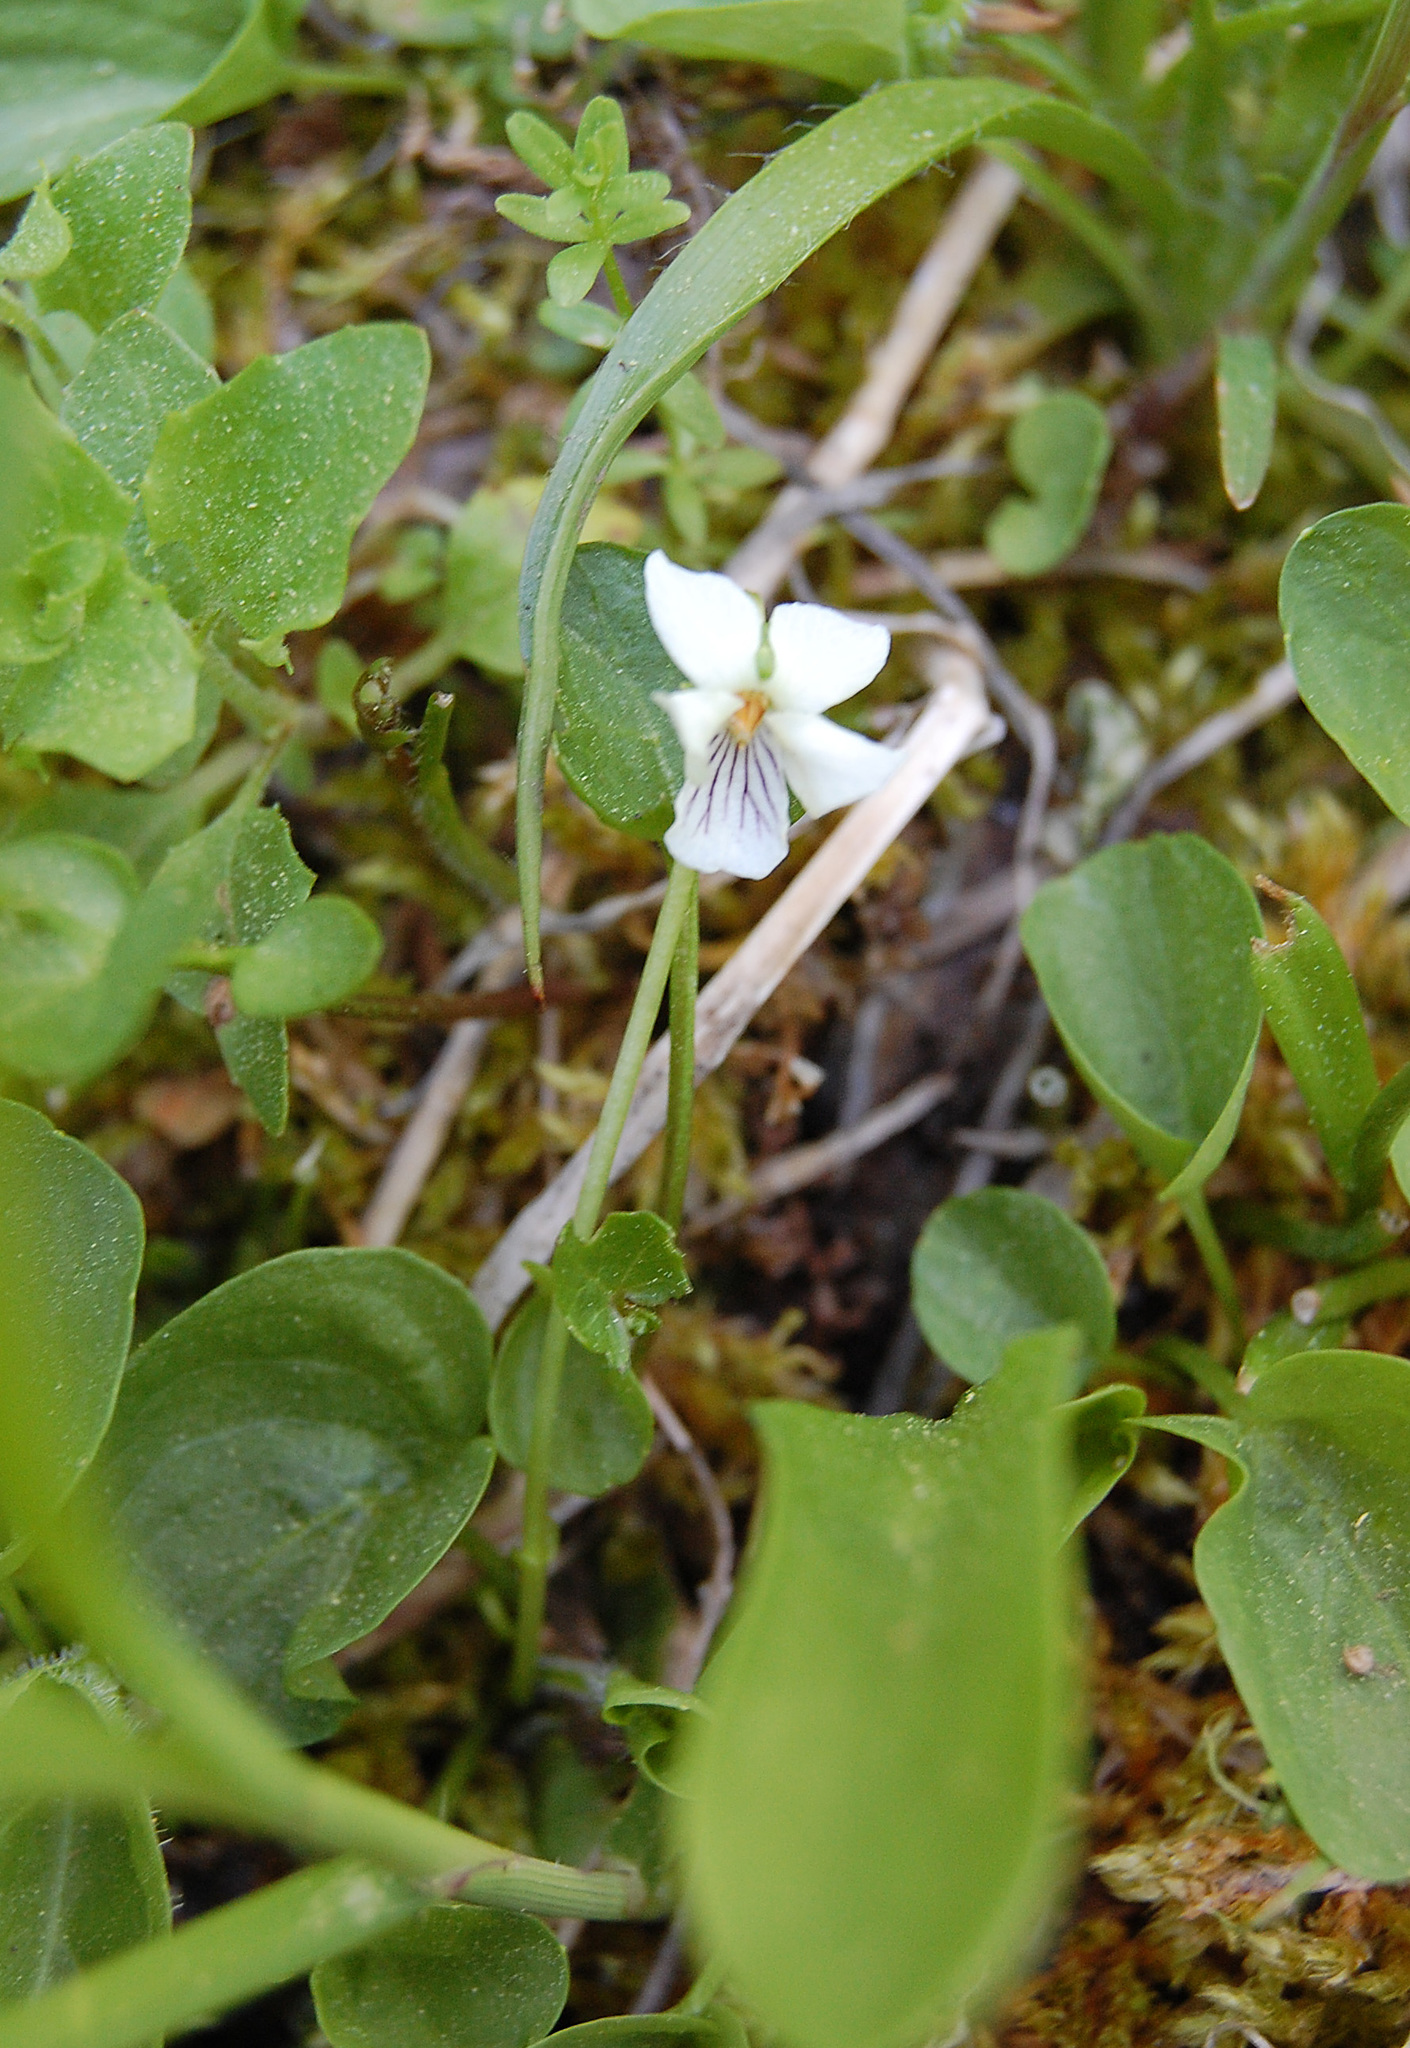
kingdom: Plantae
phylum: Tracheophyta
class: Magnoliopsida
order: Malpighiales
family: Violaceae
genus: Viola
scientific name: Viola macloskeyi
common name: Macloskey's violet
